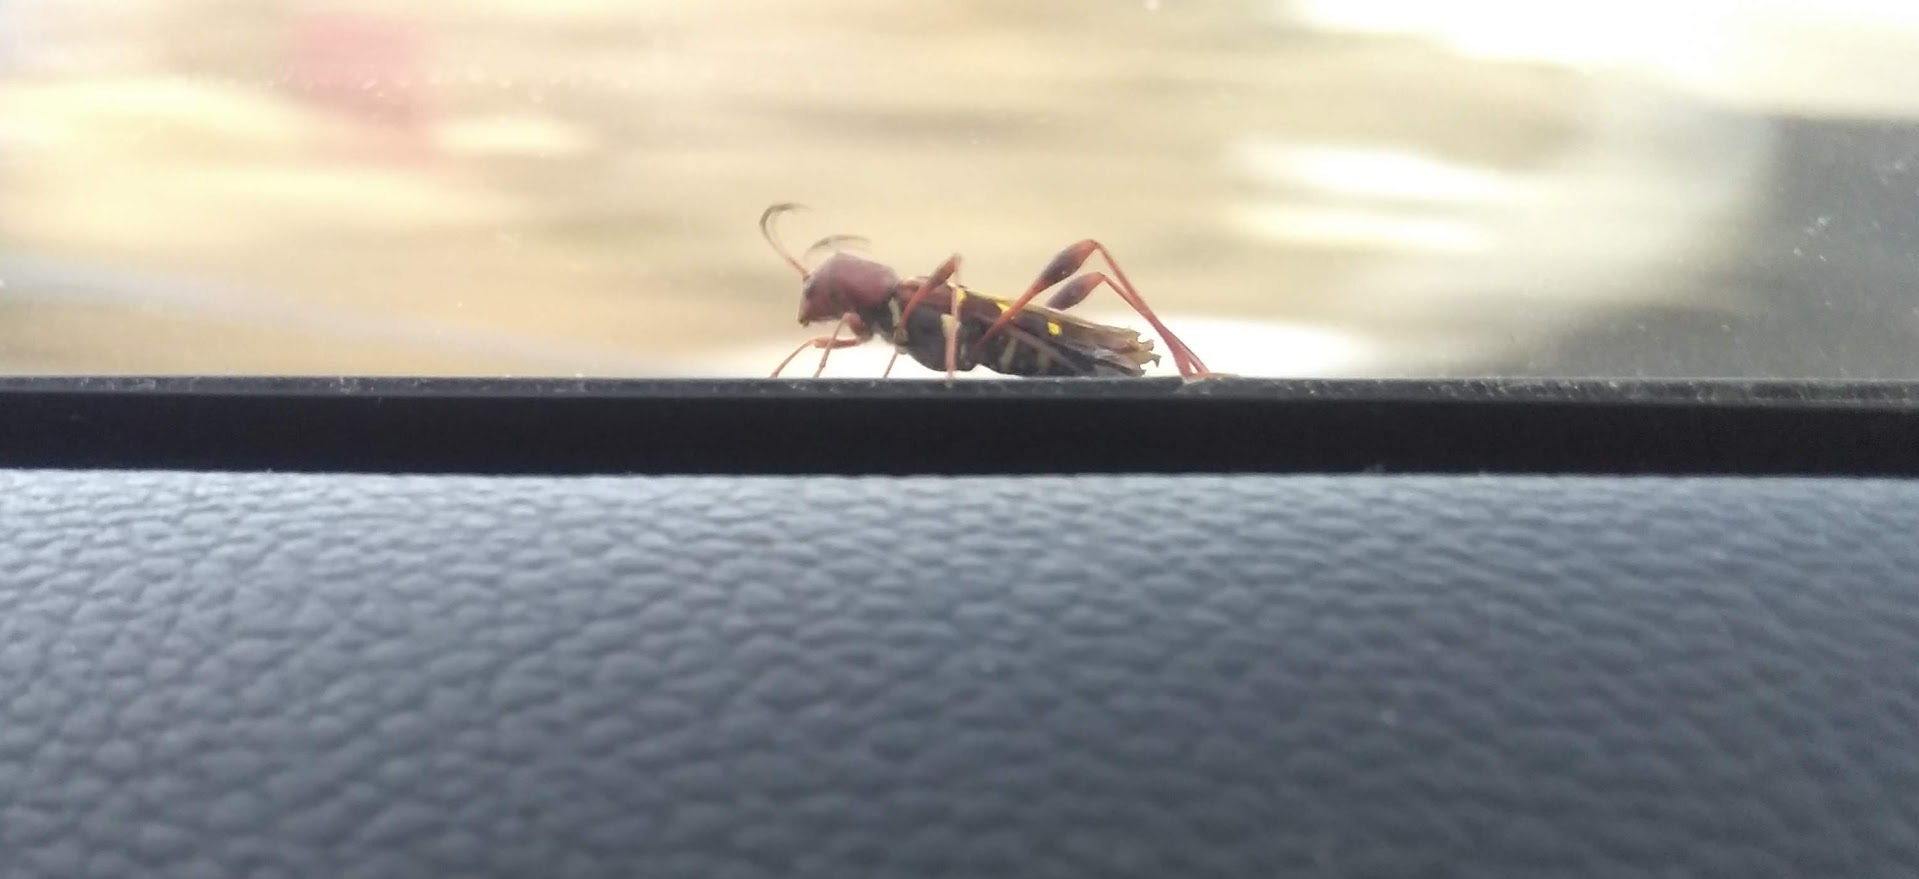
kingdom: Animalia
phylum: Arthropoda
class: Insecta
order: Coleoptera
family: Cerambycidae
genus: Neoclytus
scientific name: Neoclytus acuminatus
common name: Read-headed ash borer
